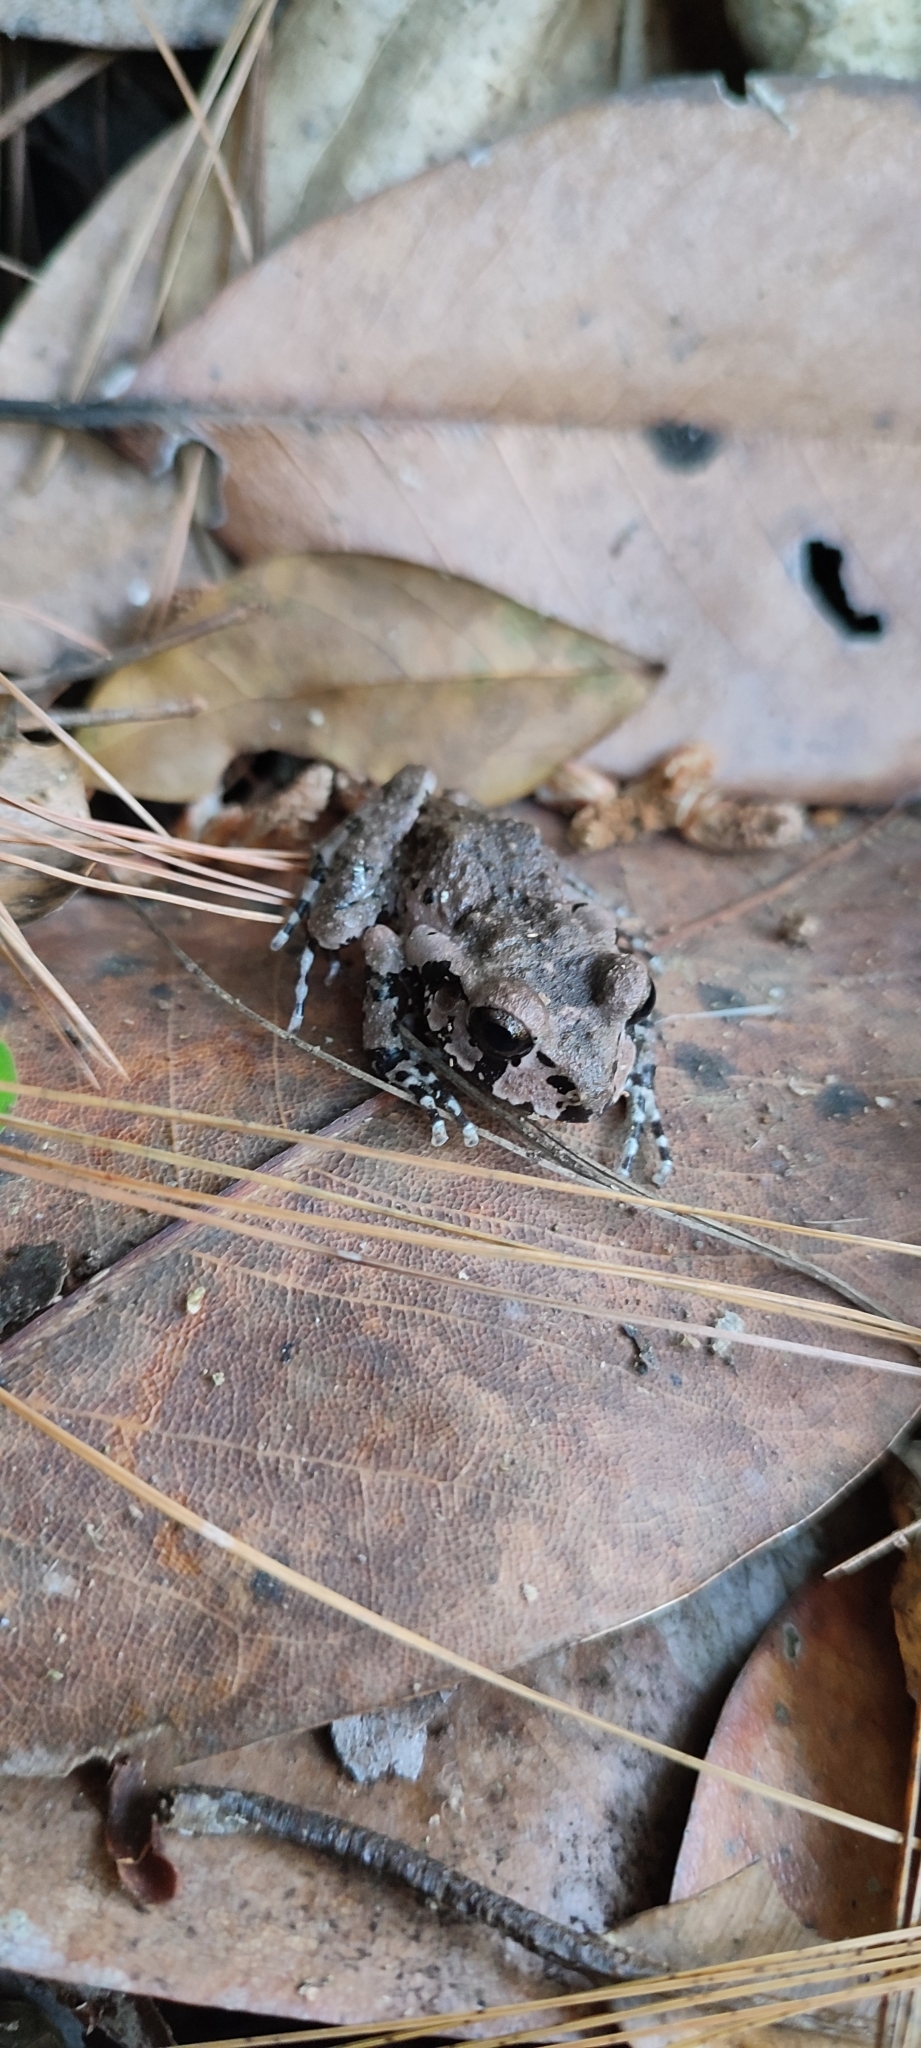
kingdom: Animalia
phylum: Chordata
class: Amphibia
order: Anura
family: Craugastoridae
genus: Craugastor
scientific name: Craugastor occidentalis
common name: Taylor's barking frog
